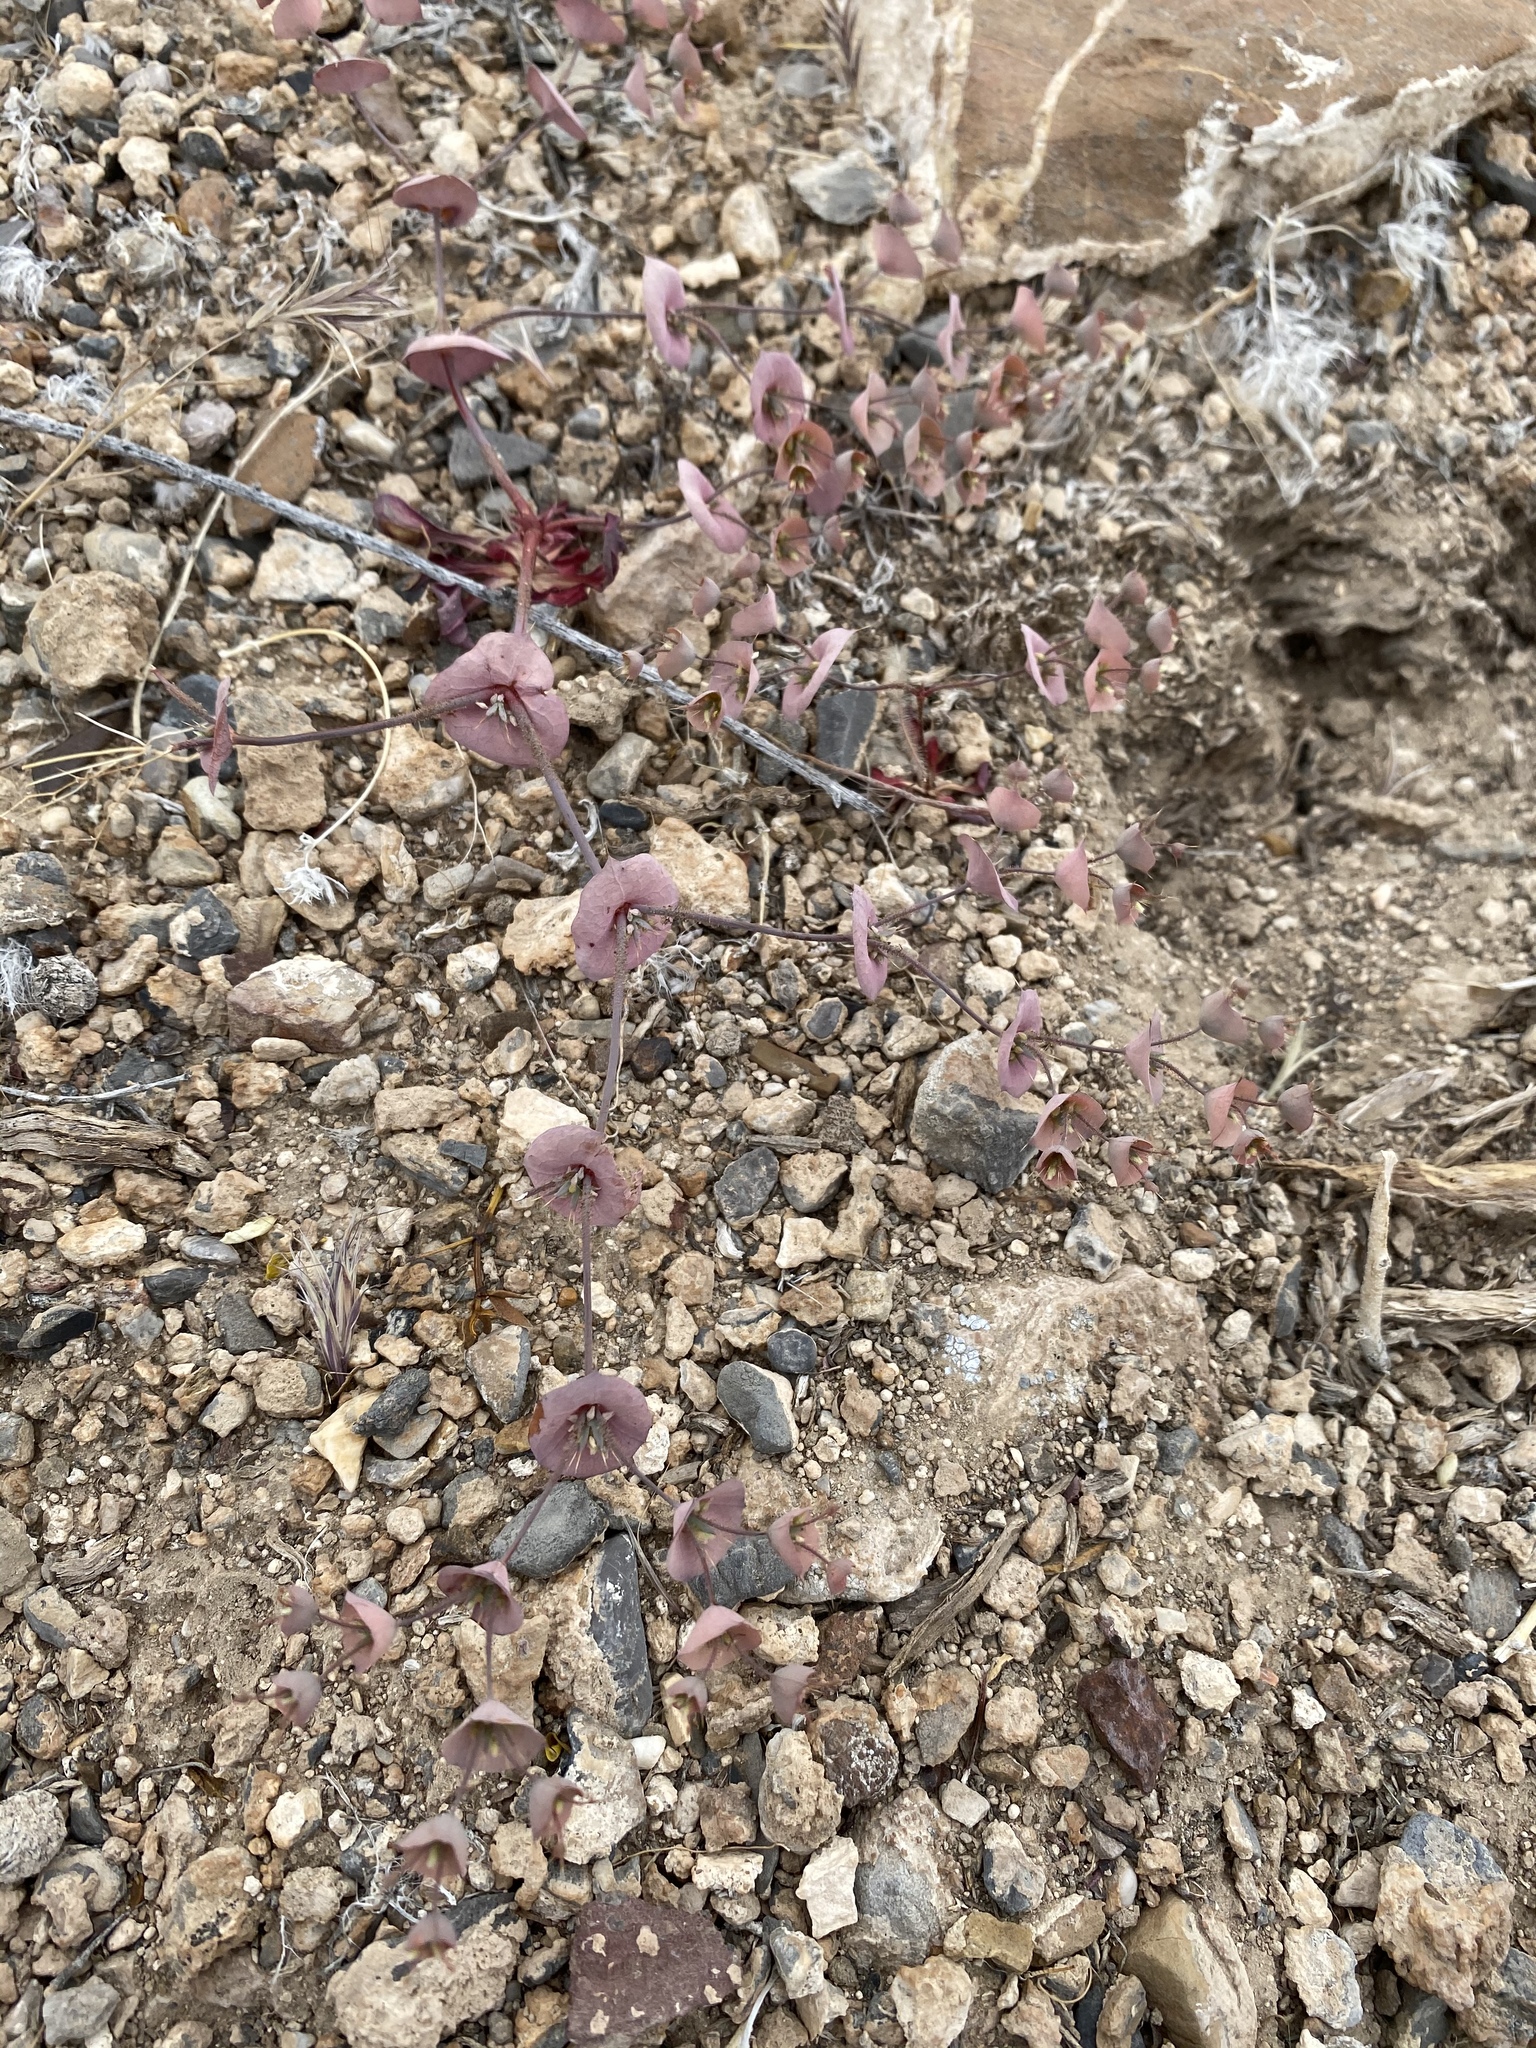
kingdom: Plantae
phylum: Tracheophyta
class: Magnoliopsida
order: Caryophyllales
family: Polygonaceae
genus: Oxytheca
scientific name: Oxytheca perfoliata
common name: Round-leaf puncturebract
